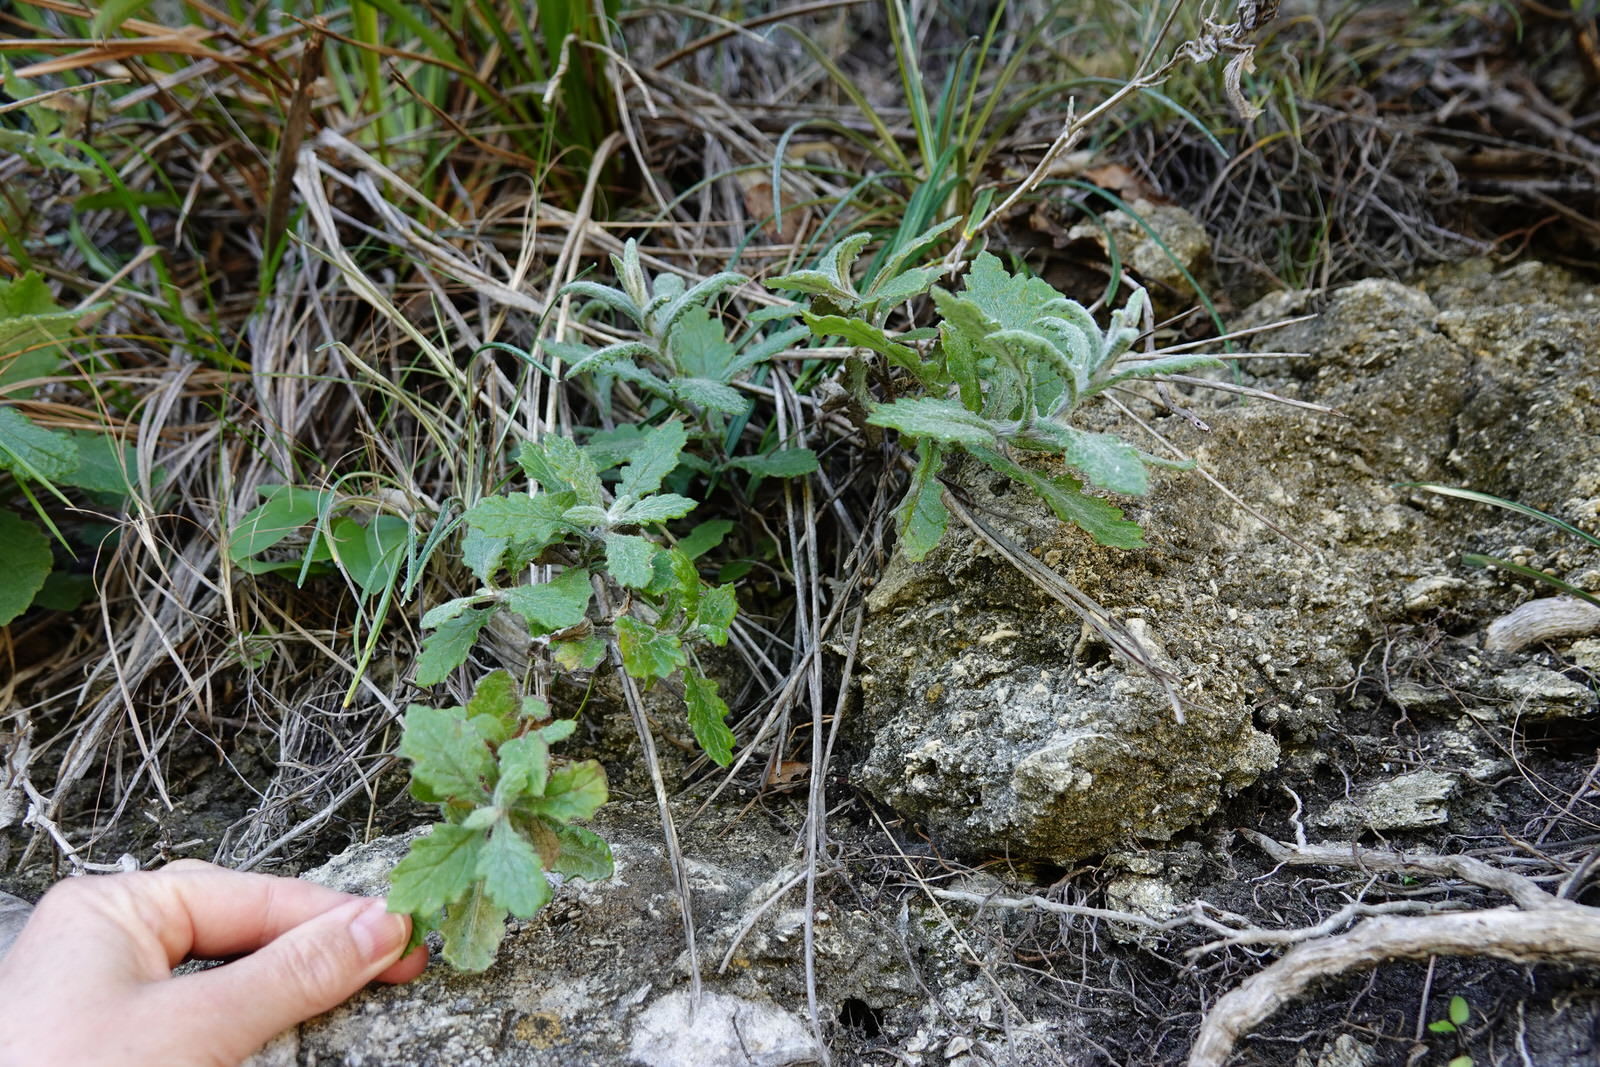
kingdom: Plantae
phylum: Tracheophyta
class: Magnoliopsida
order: Asterales
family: Asteraceae
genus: Senecio
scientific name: Senecio glomeratus
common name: Cutleaf burnweed
